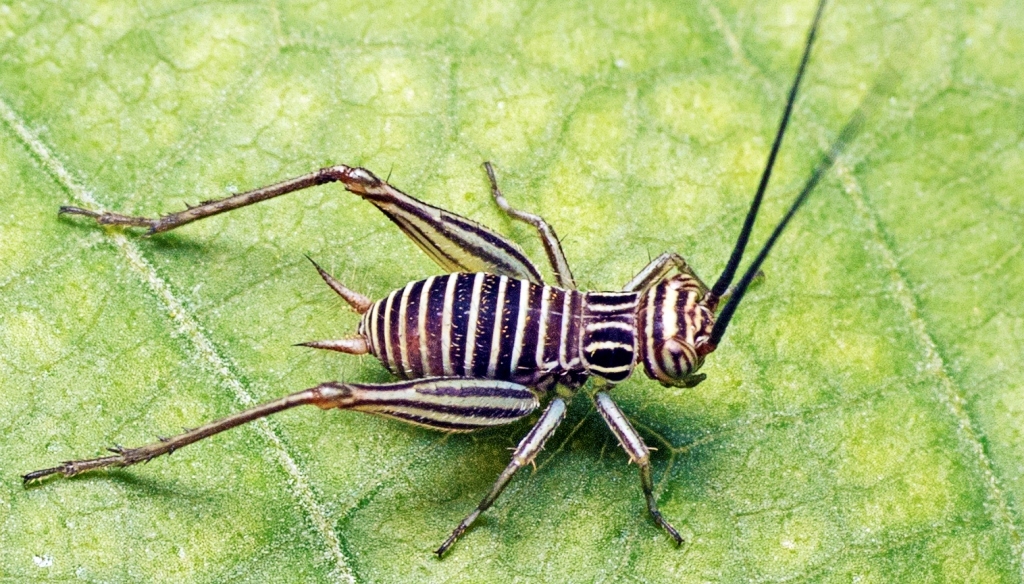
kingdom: Animalia
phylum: Arthropoda
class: Insecta
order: Orthoptera
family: Gryllidae
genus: Nisitrus
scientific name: Nisitrus vittatus
